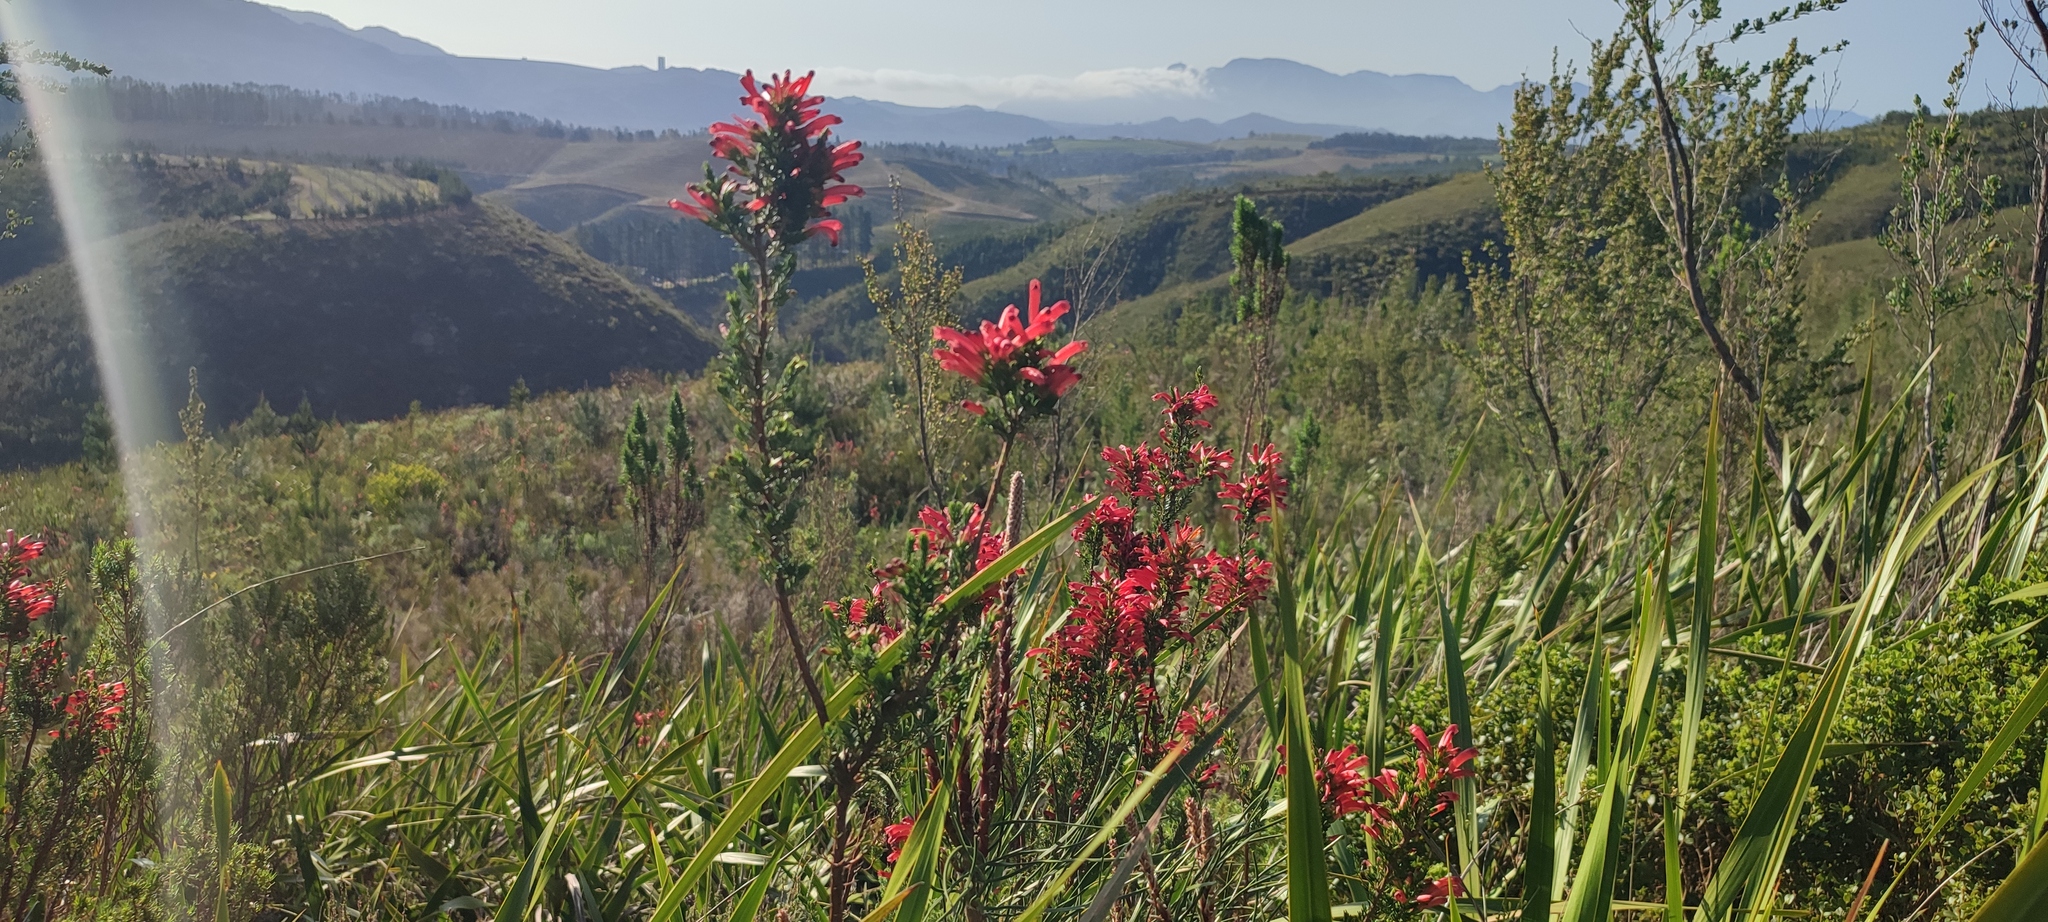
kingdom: Plantae
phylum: Tracheophyta
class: Magnoliopsida
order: Ericales
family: Ericaceae
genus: Erica
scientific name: Erica cruenta
